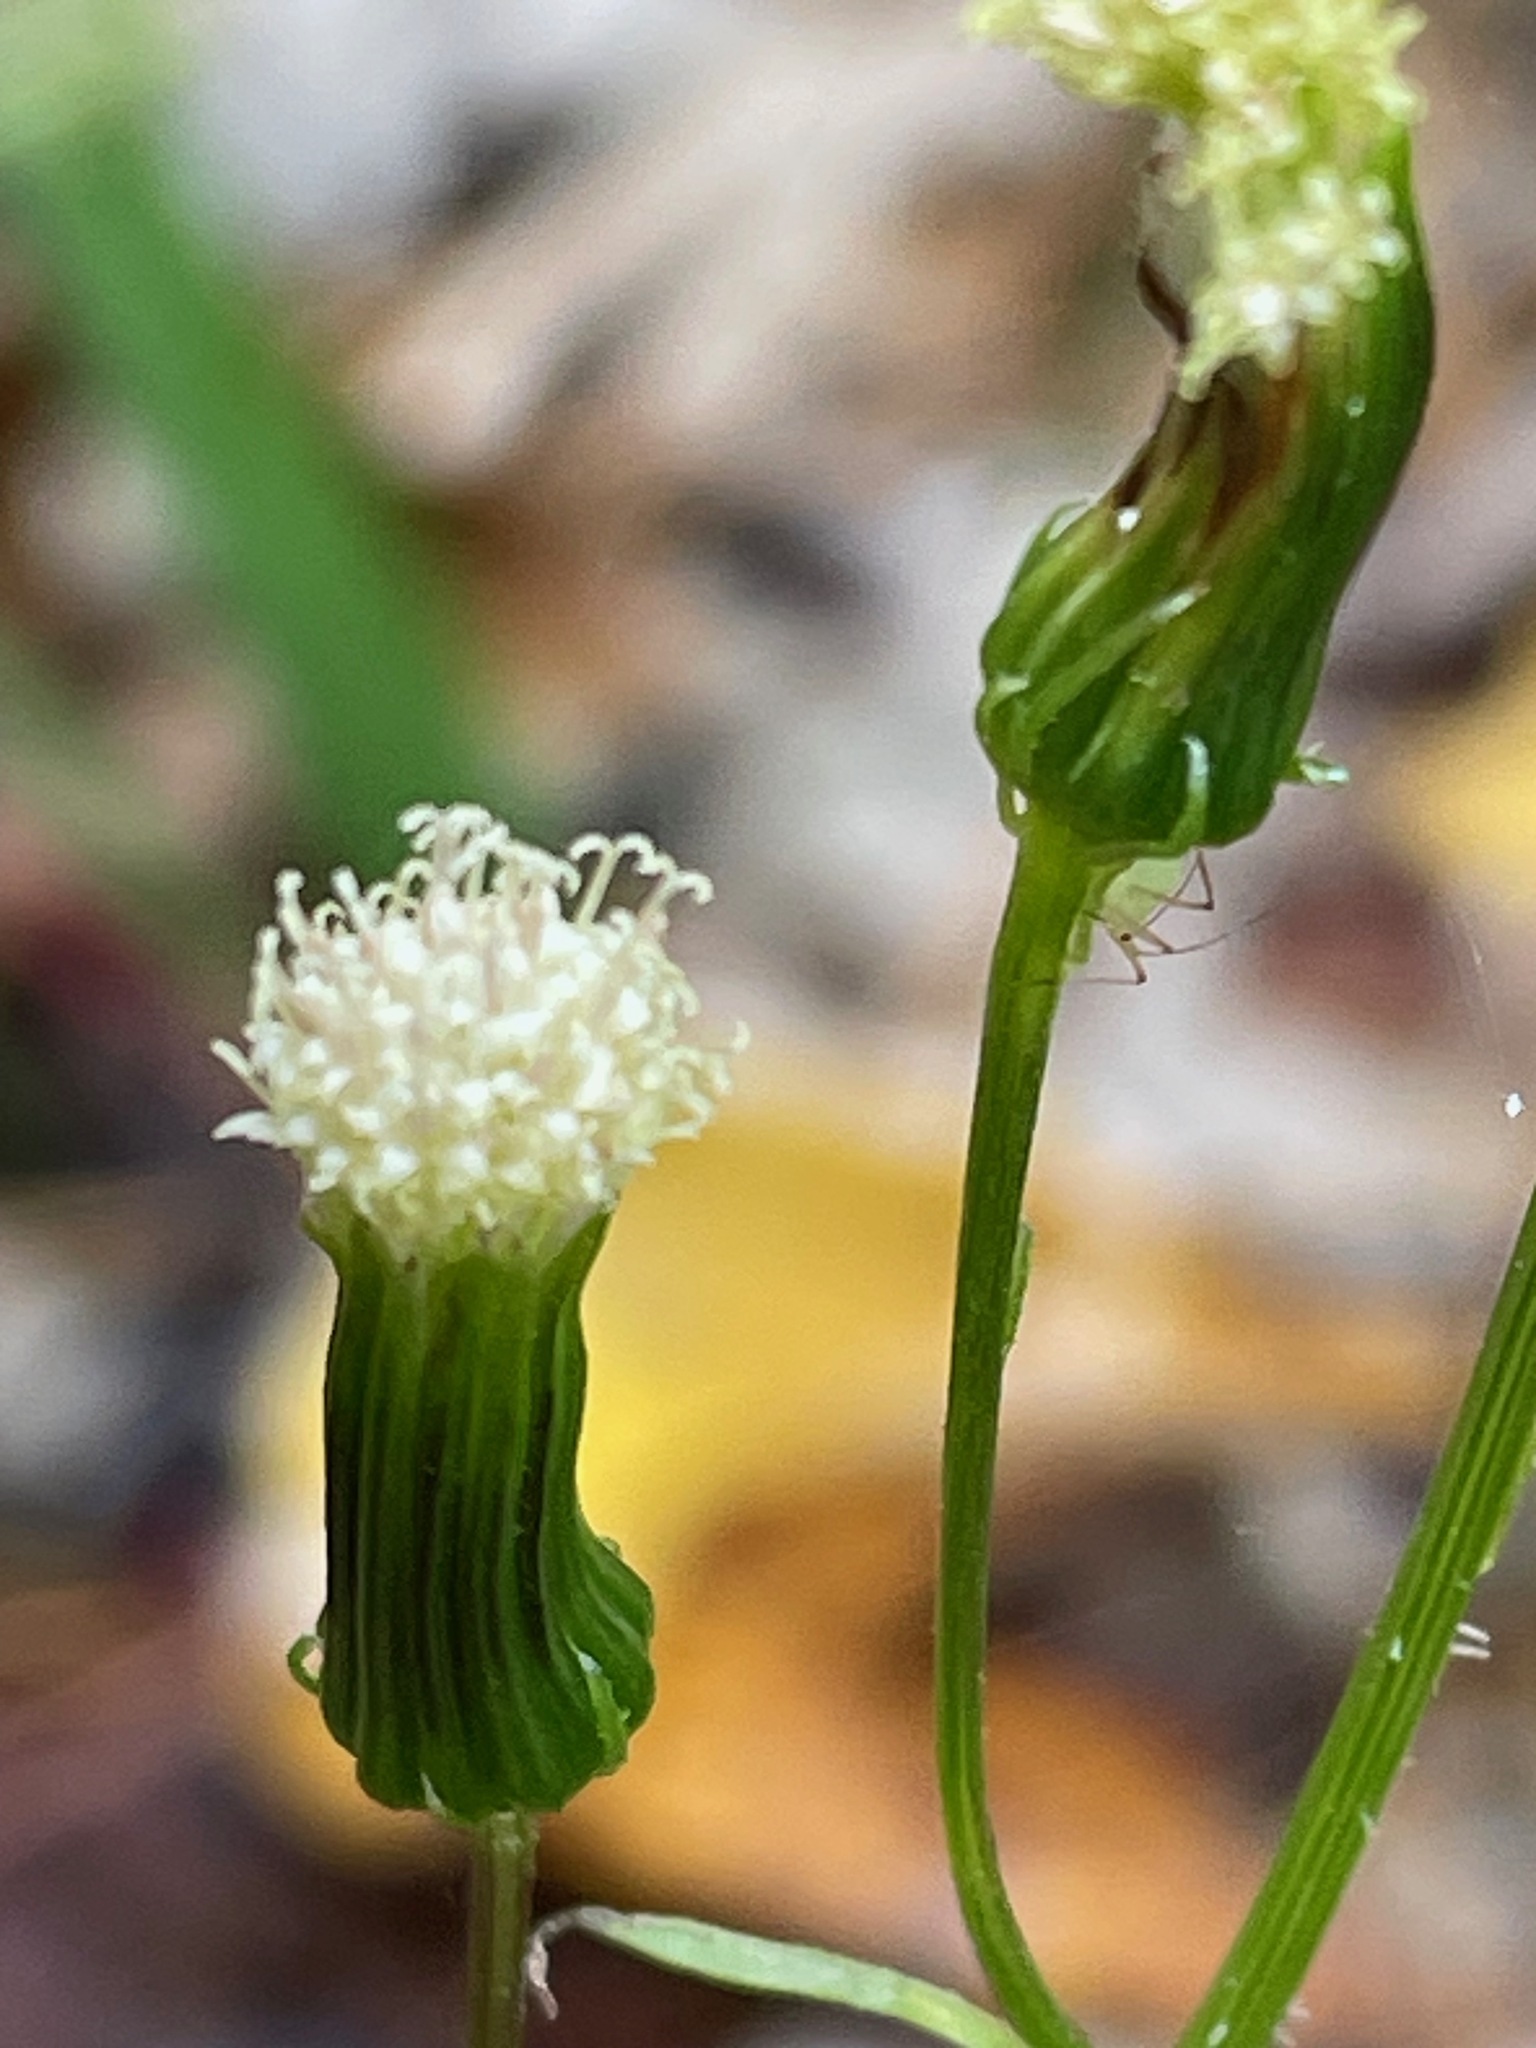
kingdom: Plantae
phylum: Tracheophyta
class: Magnoliopsida
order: Asterales
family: Asteraceae
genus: Erechtites
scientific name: Erechtites hieraciifolius
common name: American burnweed
